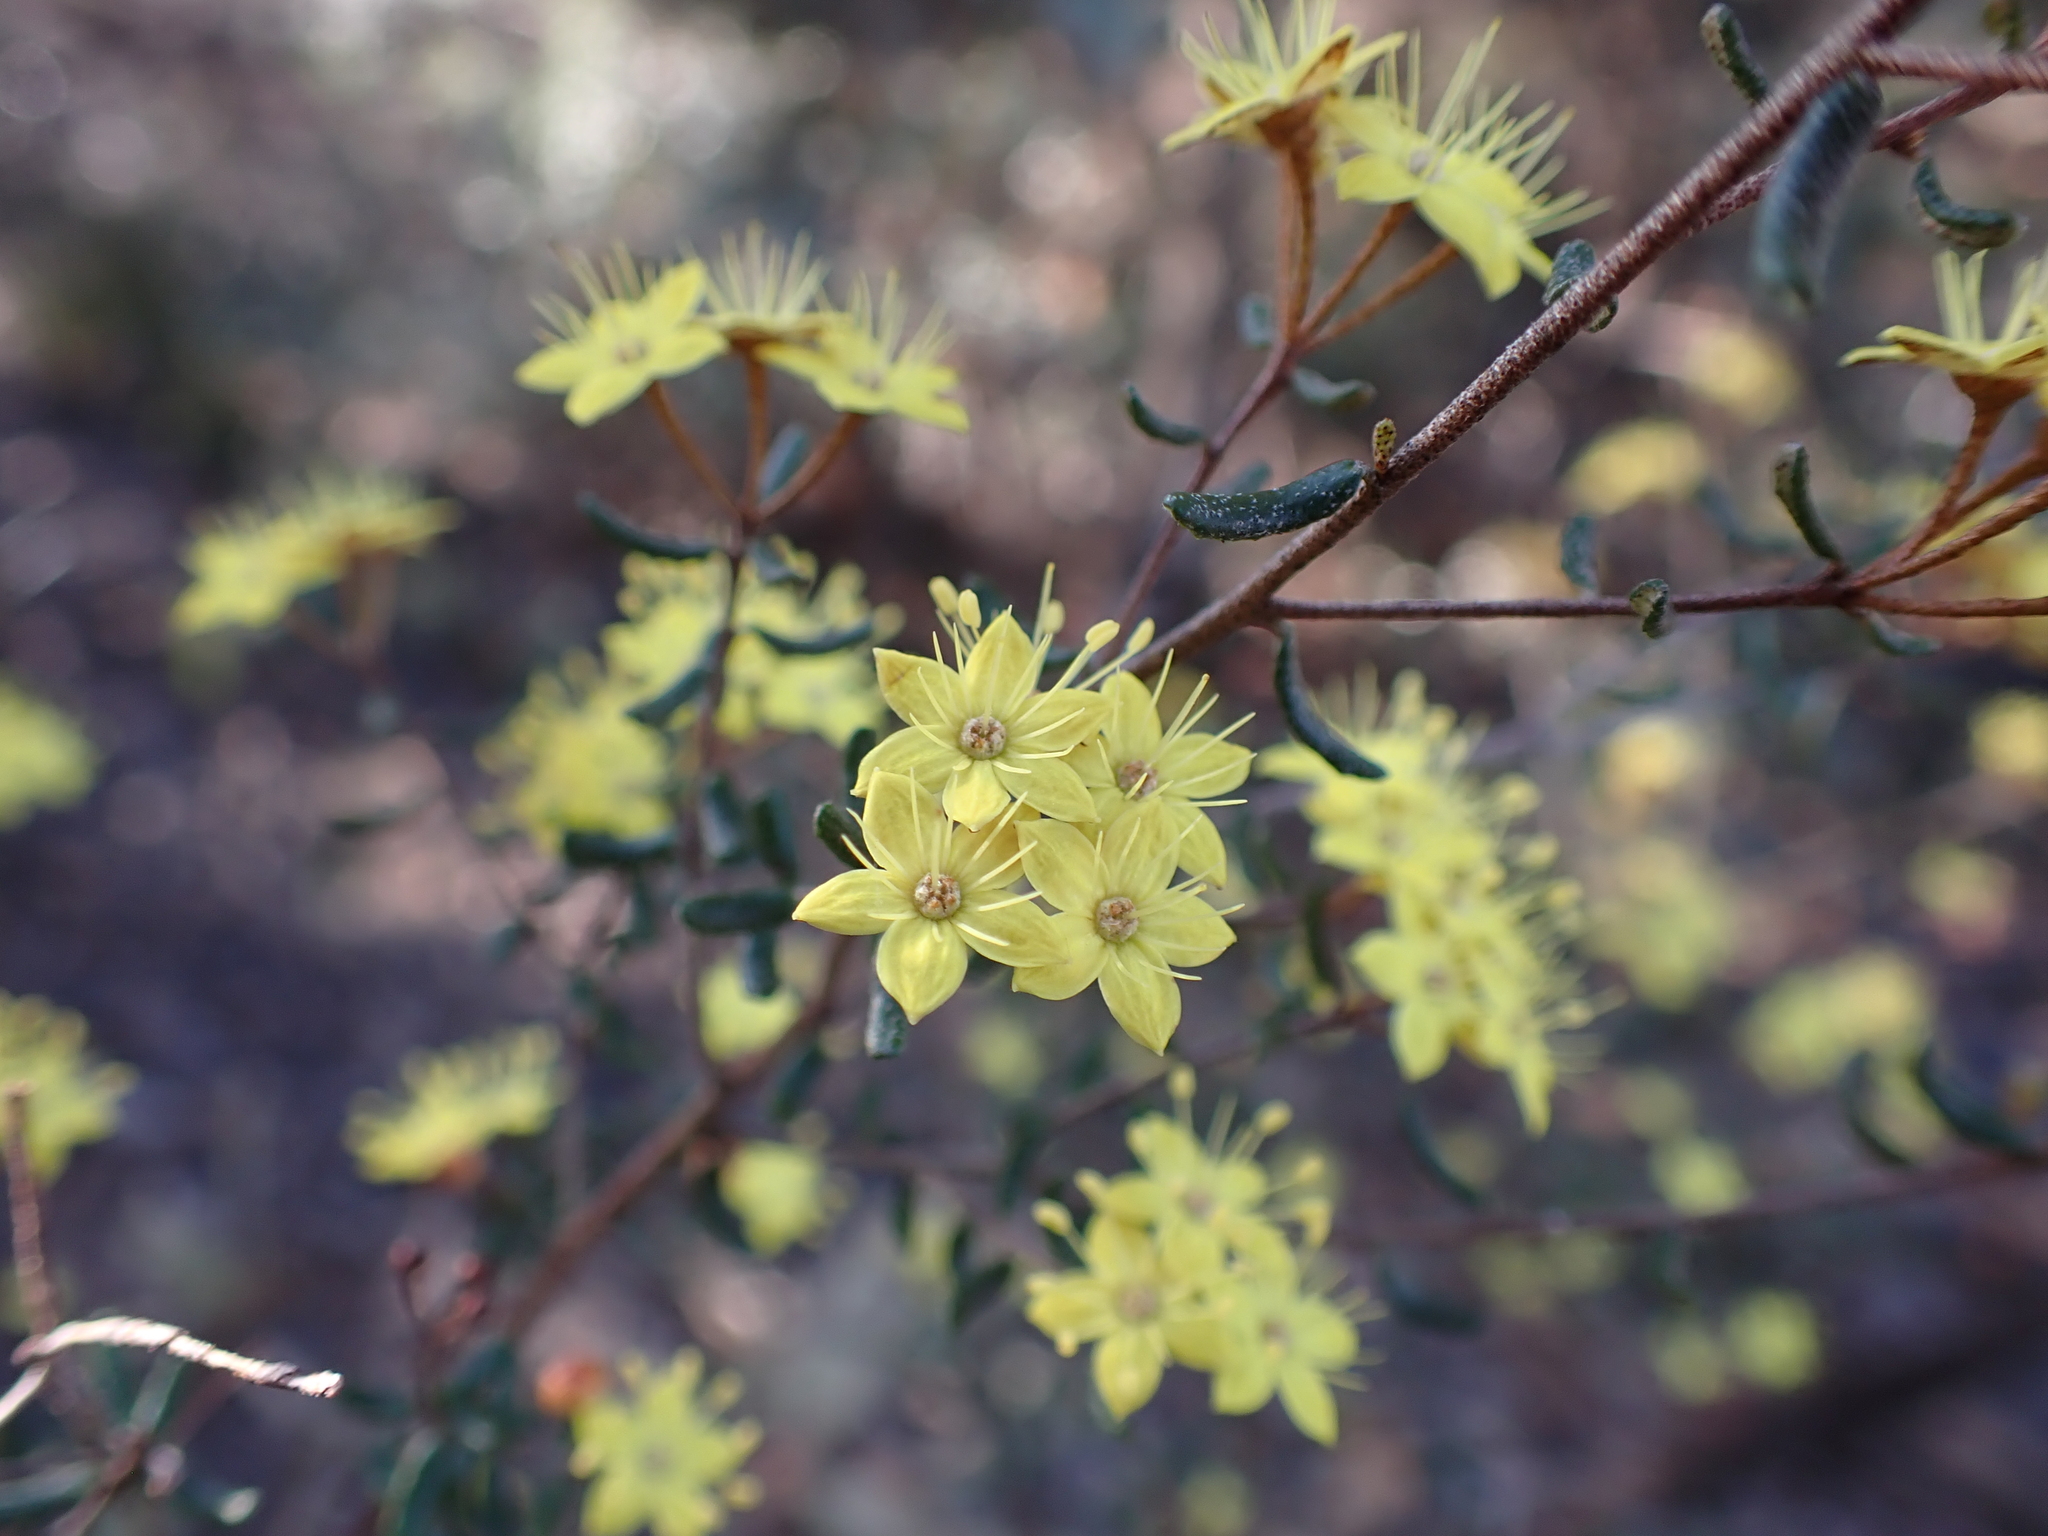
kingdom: Plantae
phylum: Tracheophyta
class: Magnoliopsida
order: Sapindales
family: Rutaceae
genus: Phebalium
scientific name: Phebalium stenophyllum
